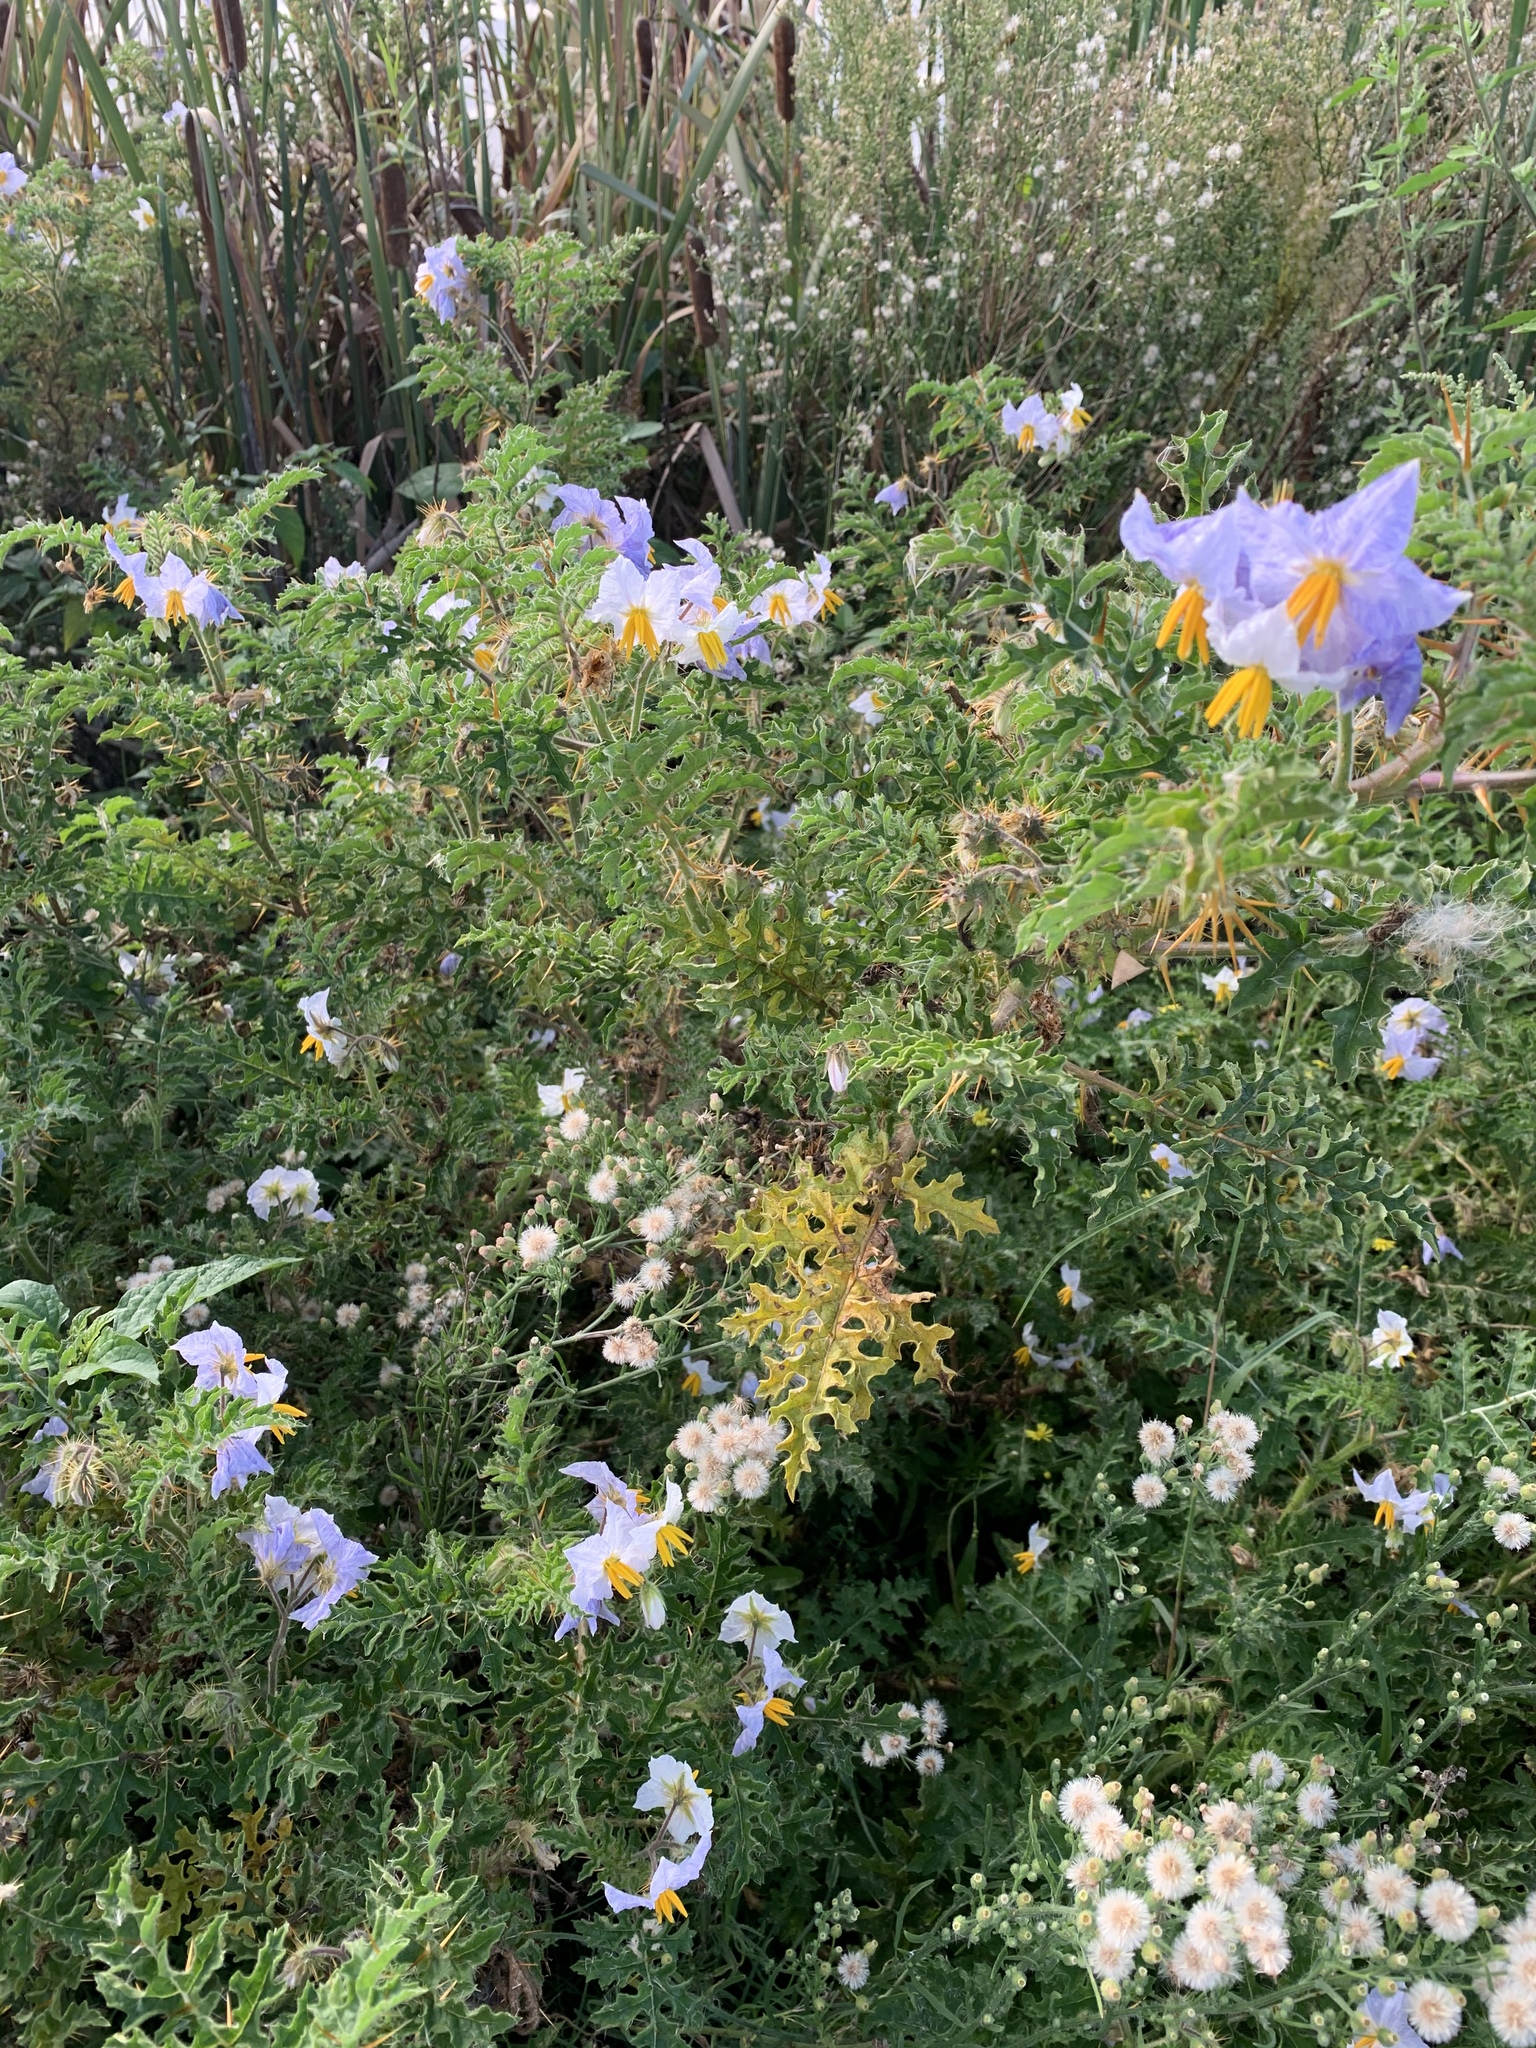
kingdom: Plantae
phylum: Tracheophyta
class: Magnoliopsida
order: Solanales
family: Solanaceae
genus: Solanum
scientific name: Solanum sisymbriifolium
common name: Red buffalo-bur
